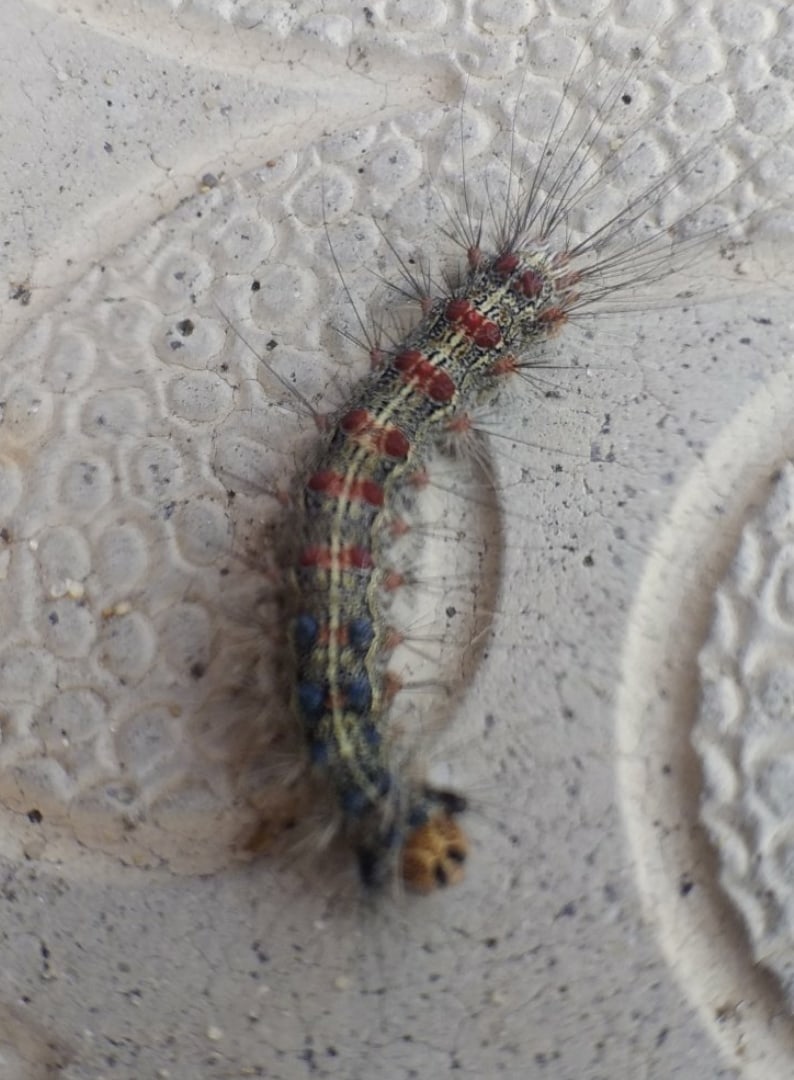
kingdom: Animalia
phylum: Arthropoda
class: Insecta
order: Lepidoptera
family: Erebidae
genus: Lymantria
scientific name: Lymantria dispar
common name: Gypsy moth
